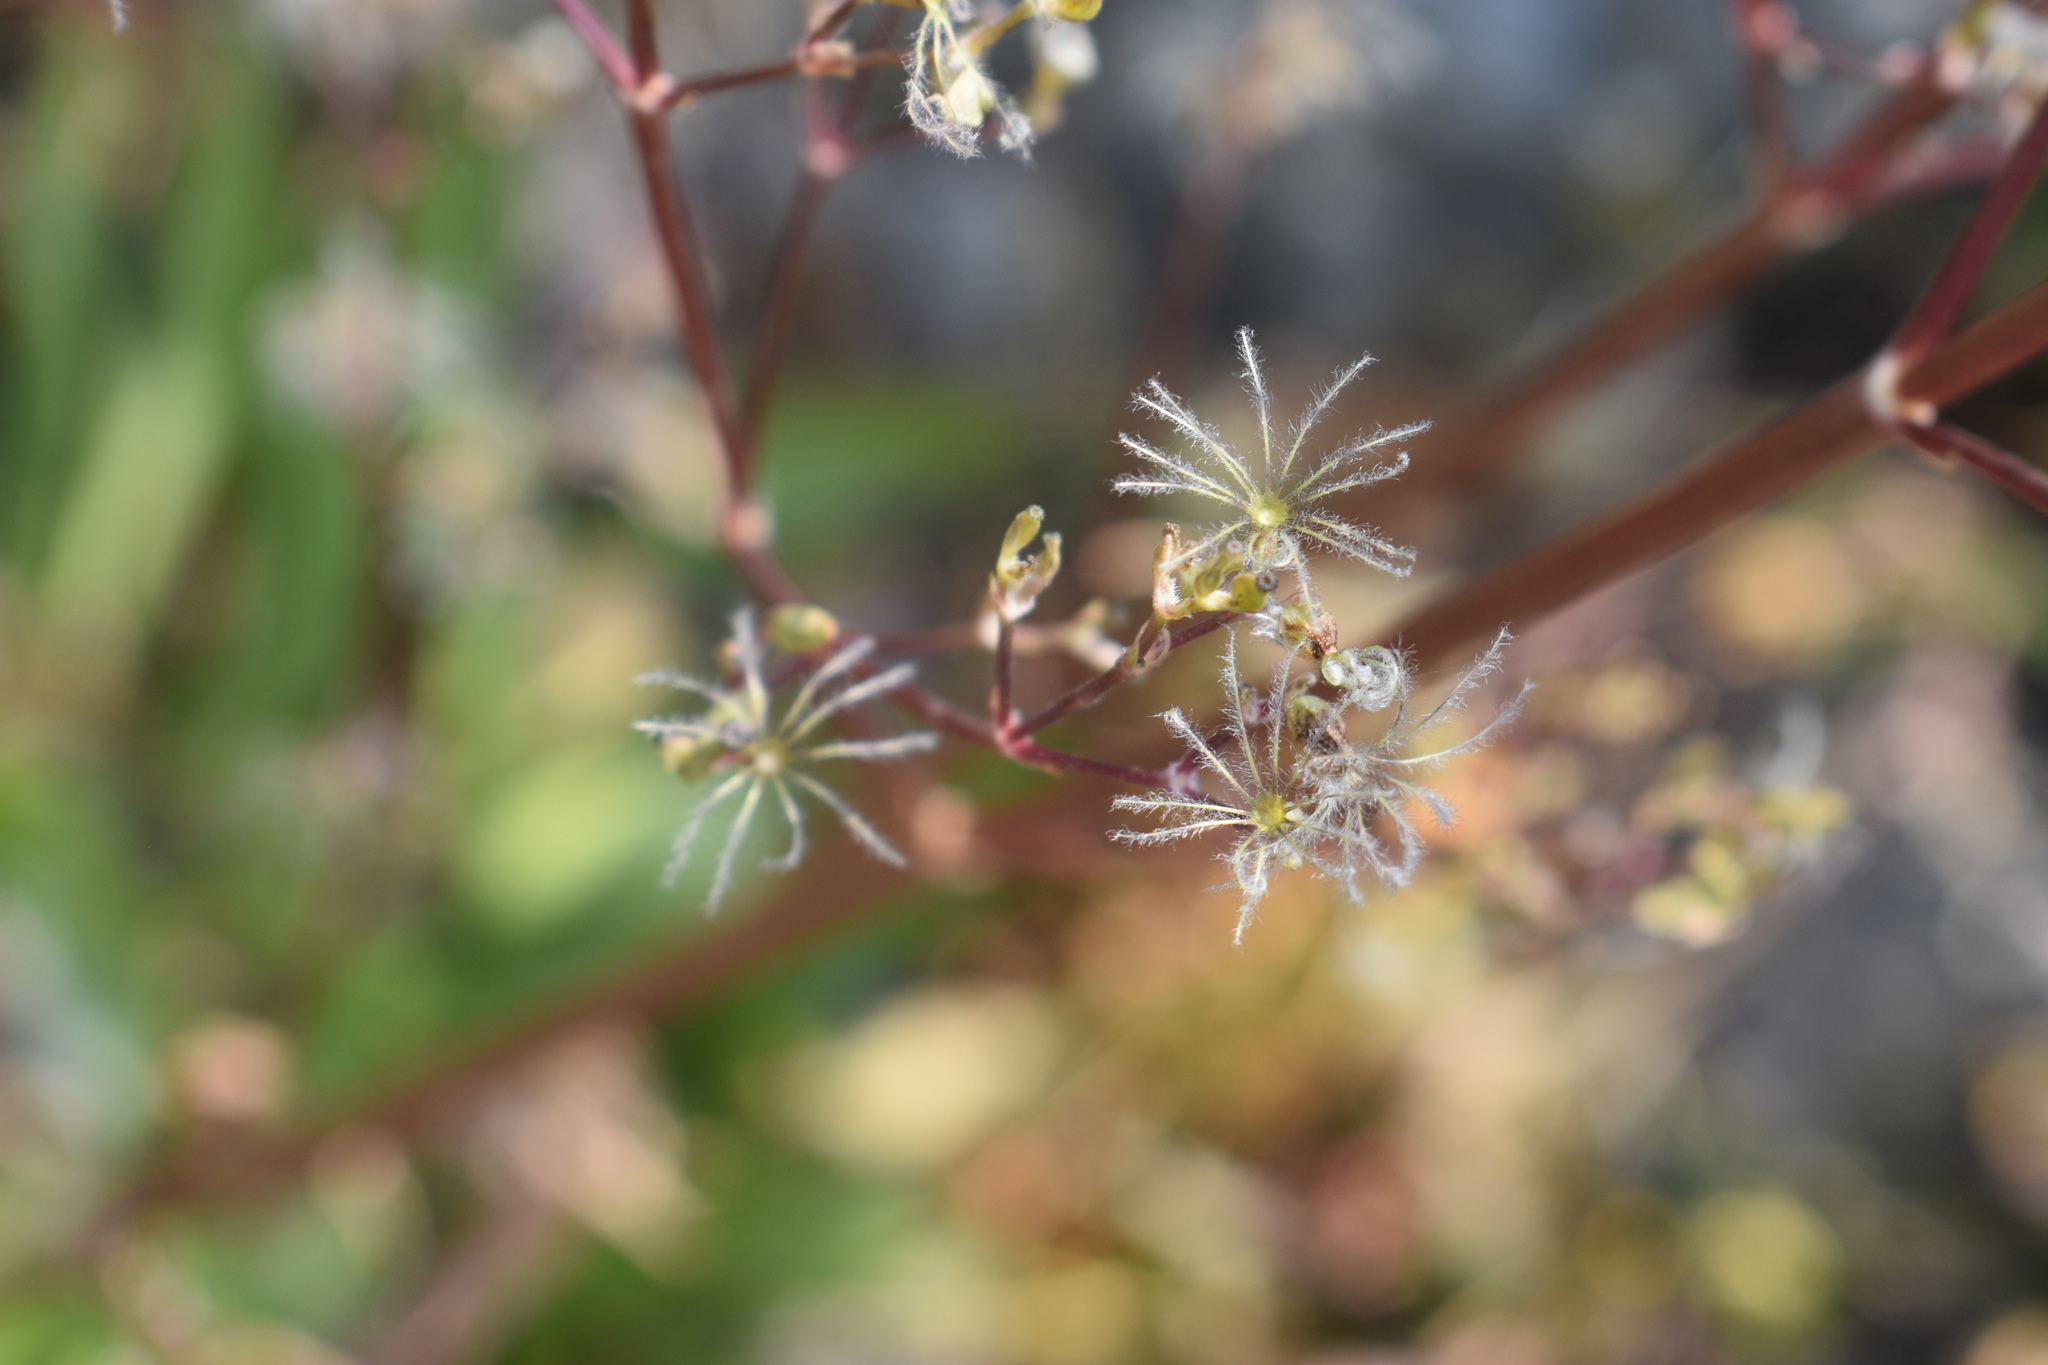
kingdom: Plantae
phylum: Tracheophyta
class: Magnoliopsida
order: Dipsacales
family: Caprifoliaceae
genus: Valeriana
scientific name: Valeriana edulis
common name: Taproot valerian
